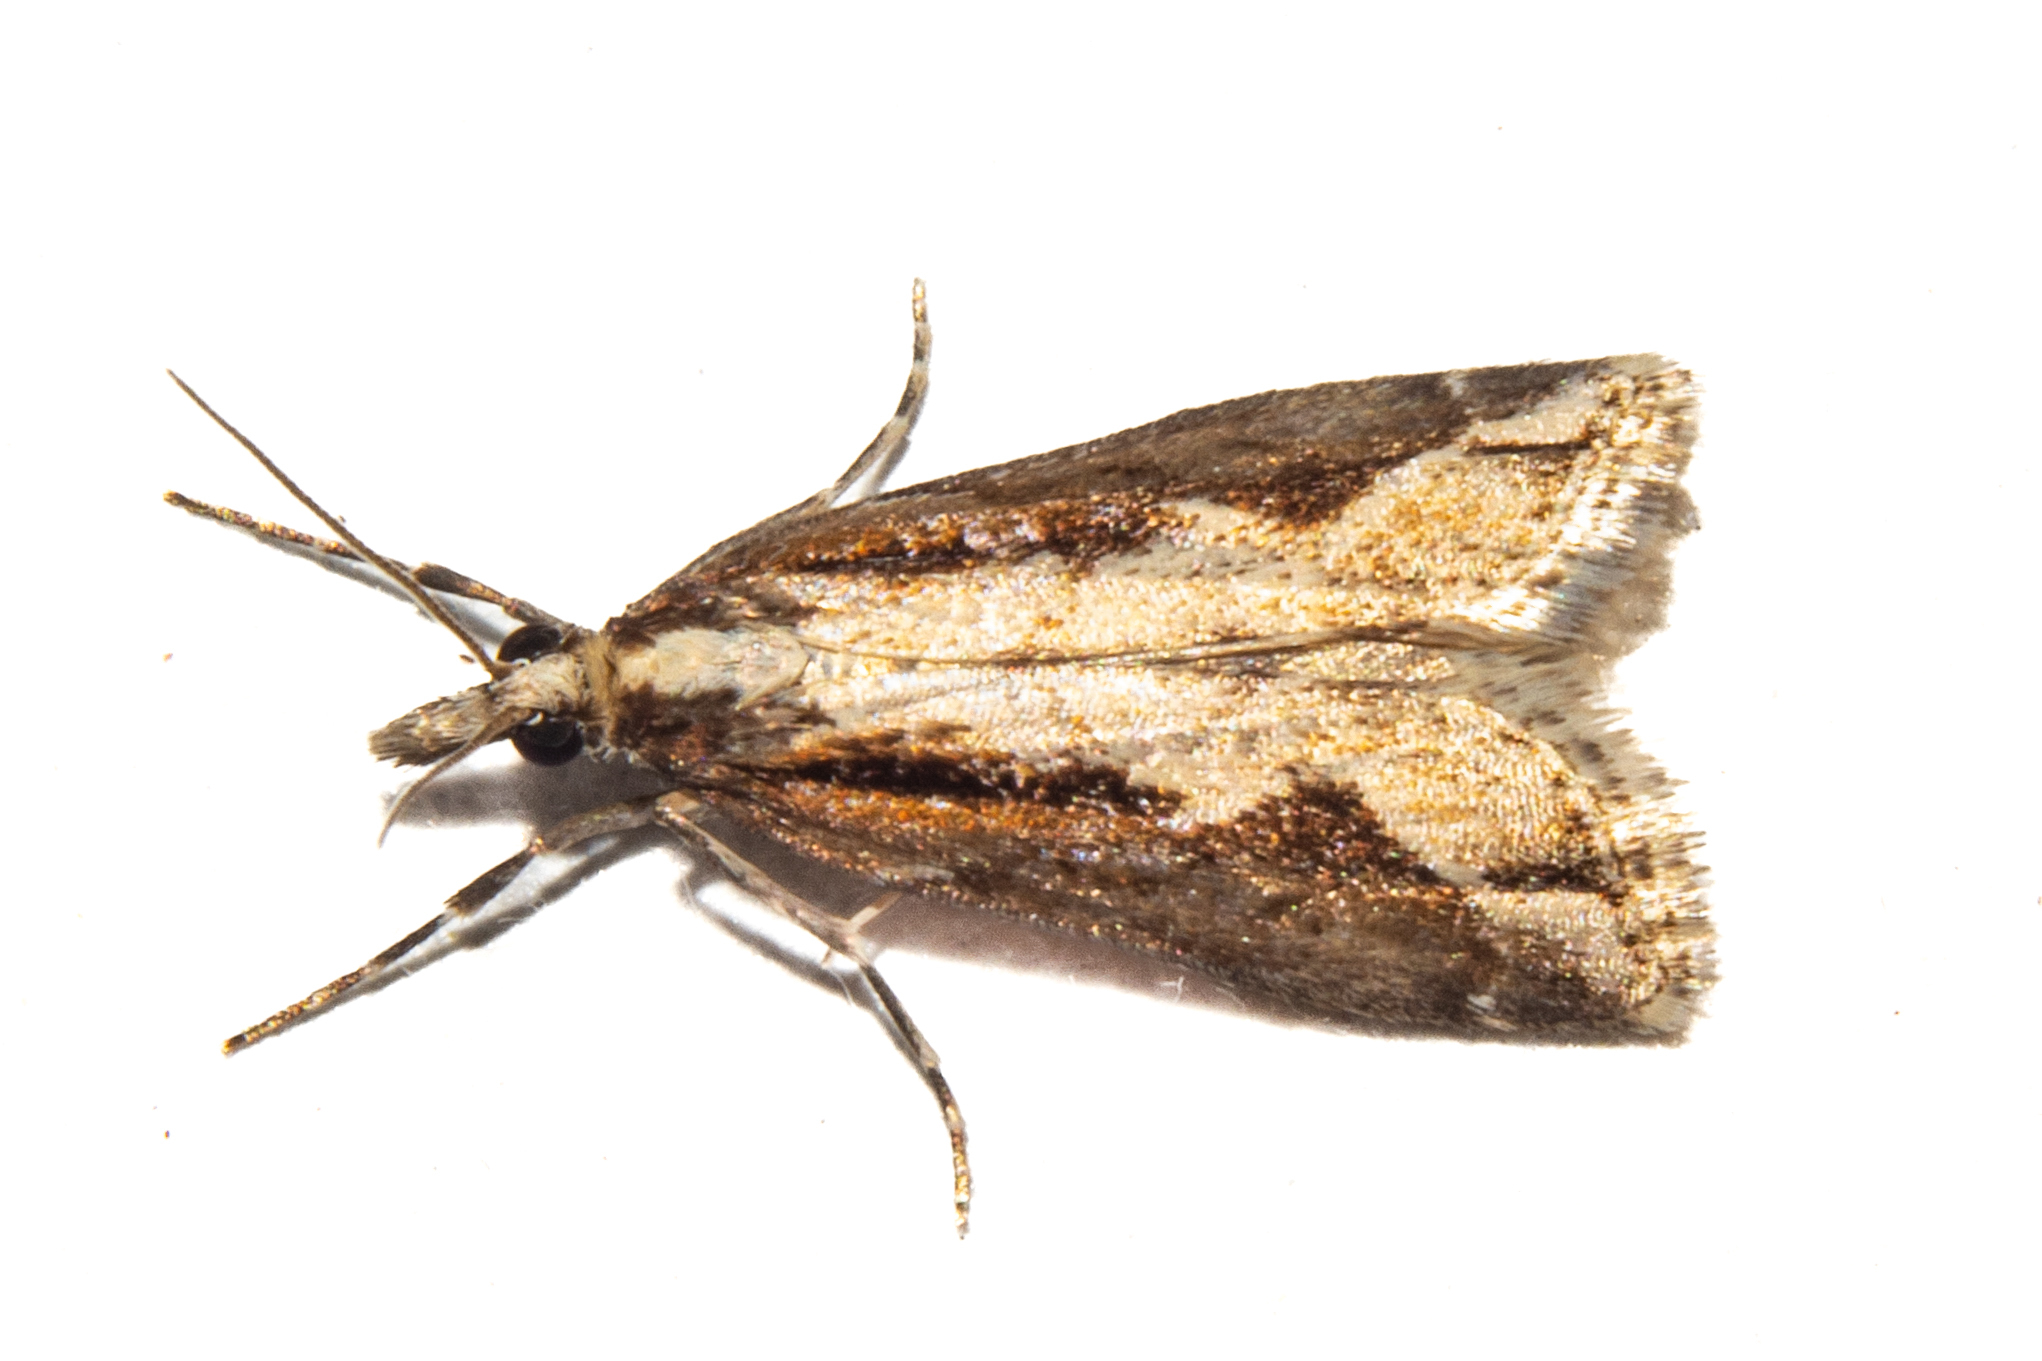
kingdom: Animalia
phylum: Arthropoda
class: Insecta
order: Lepidoptera
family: Crambidae
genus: Eudonia
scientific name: Eudonia steropaea
